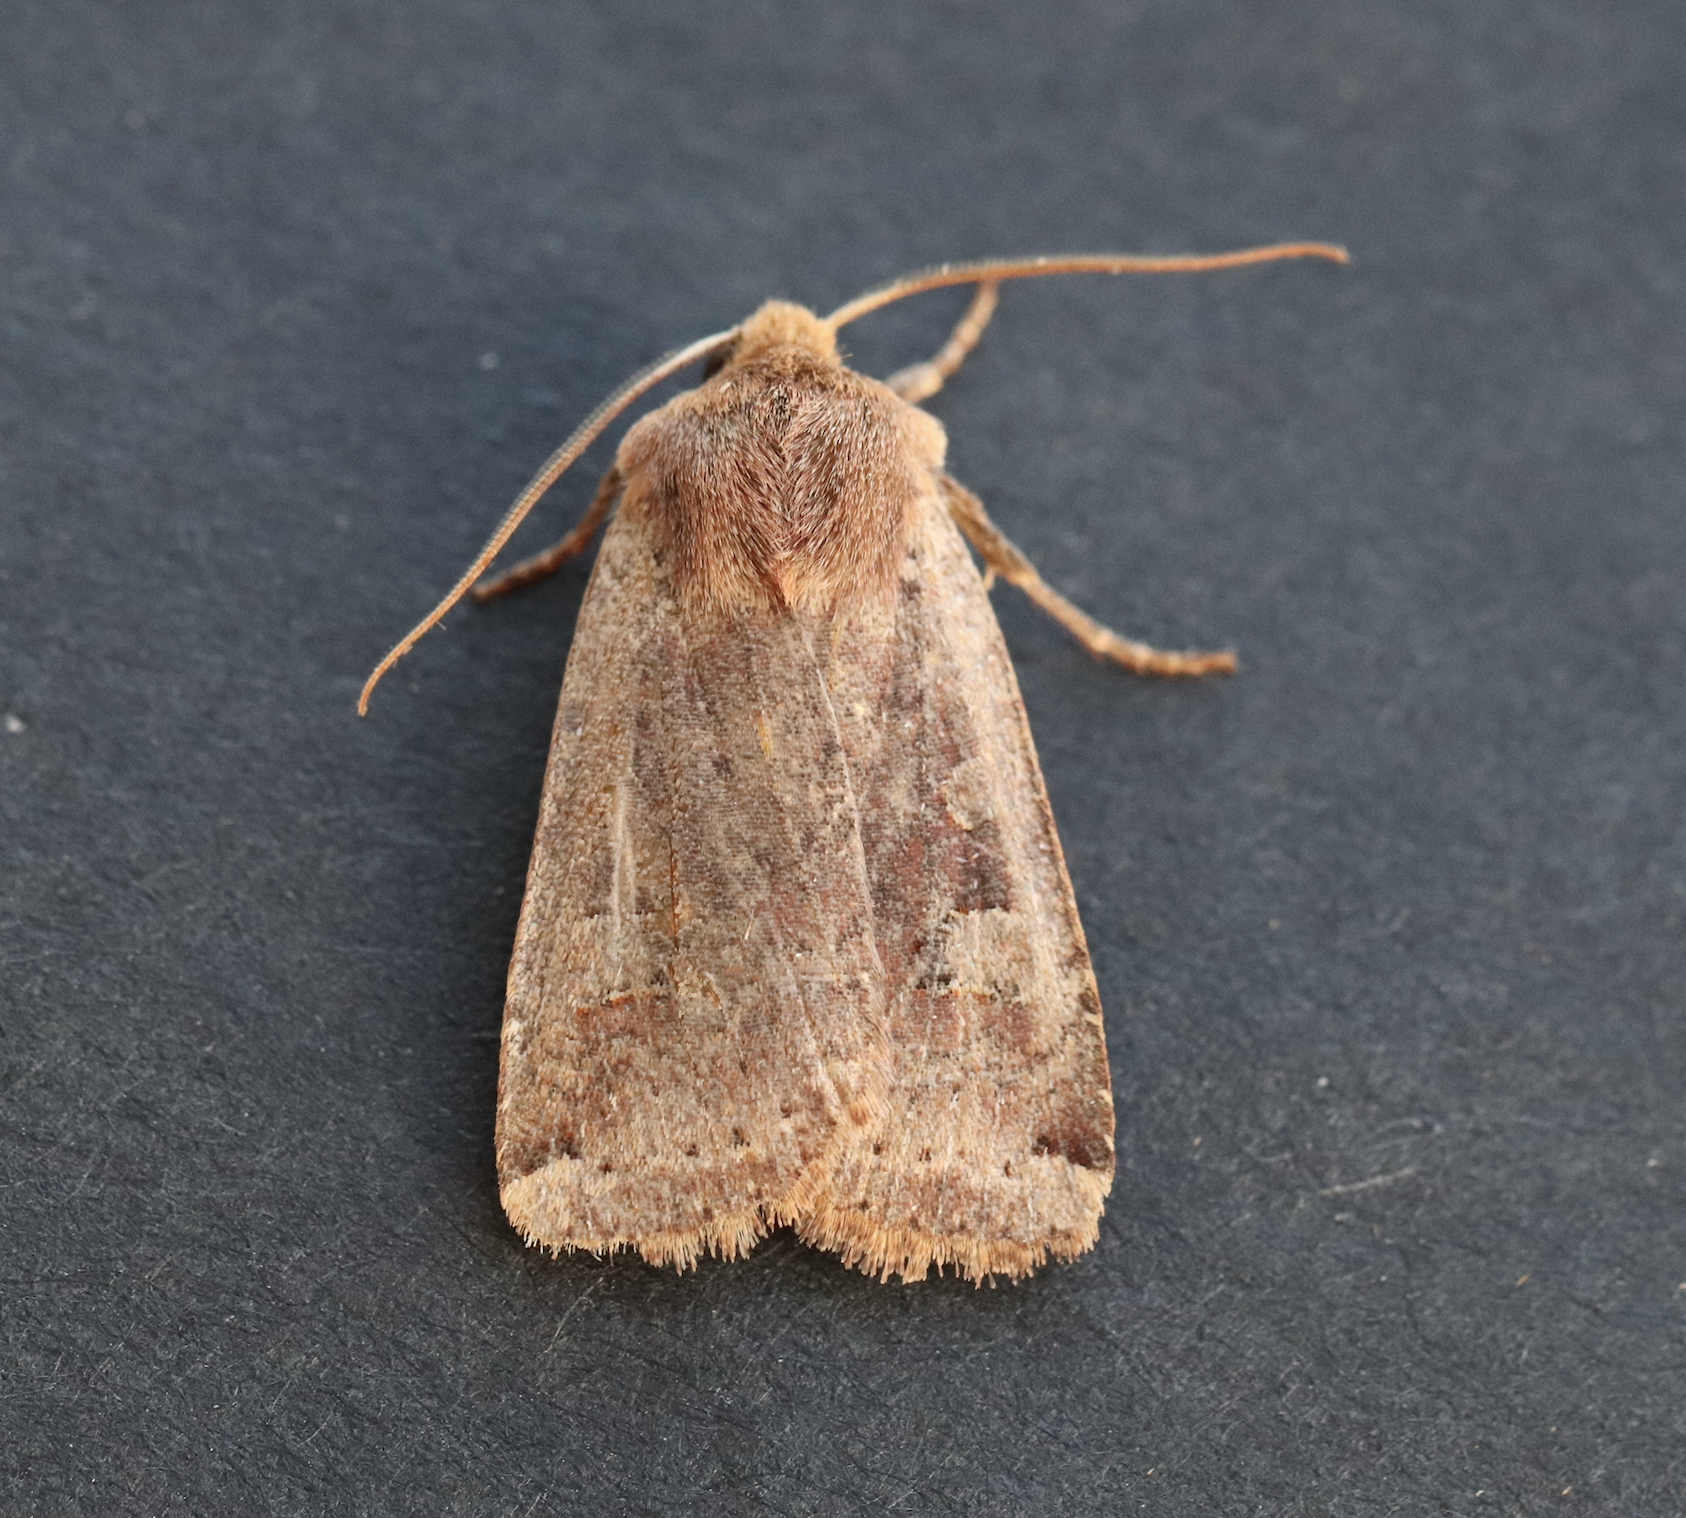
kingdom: Animalia
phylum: Arthropoda
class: Insecta
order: Lepidoptera
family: Noctuidae
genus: Conistra
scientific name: Conistra erythrocephala
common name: Red-headed chestnut
